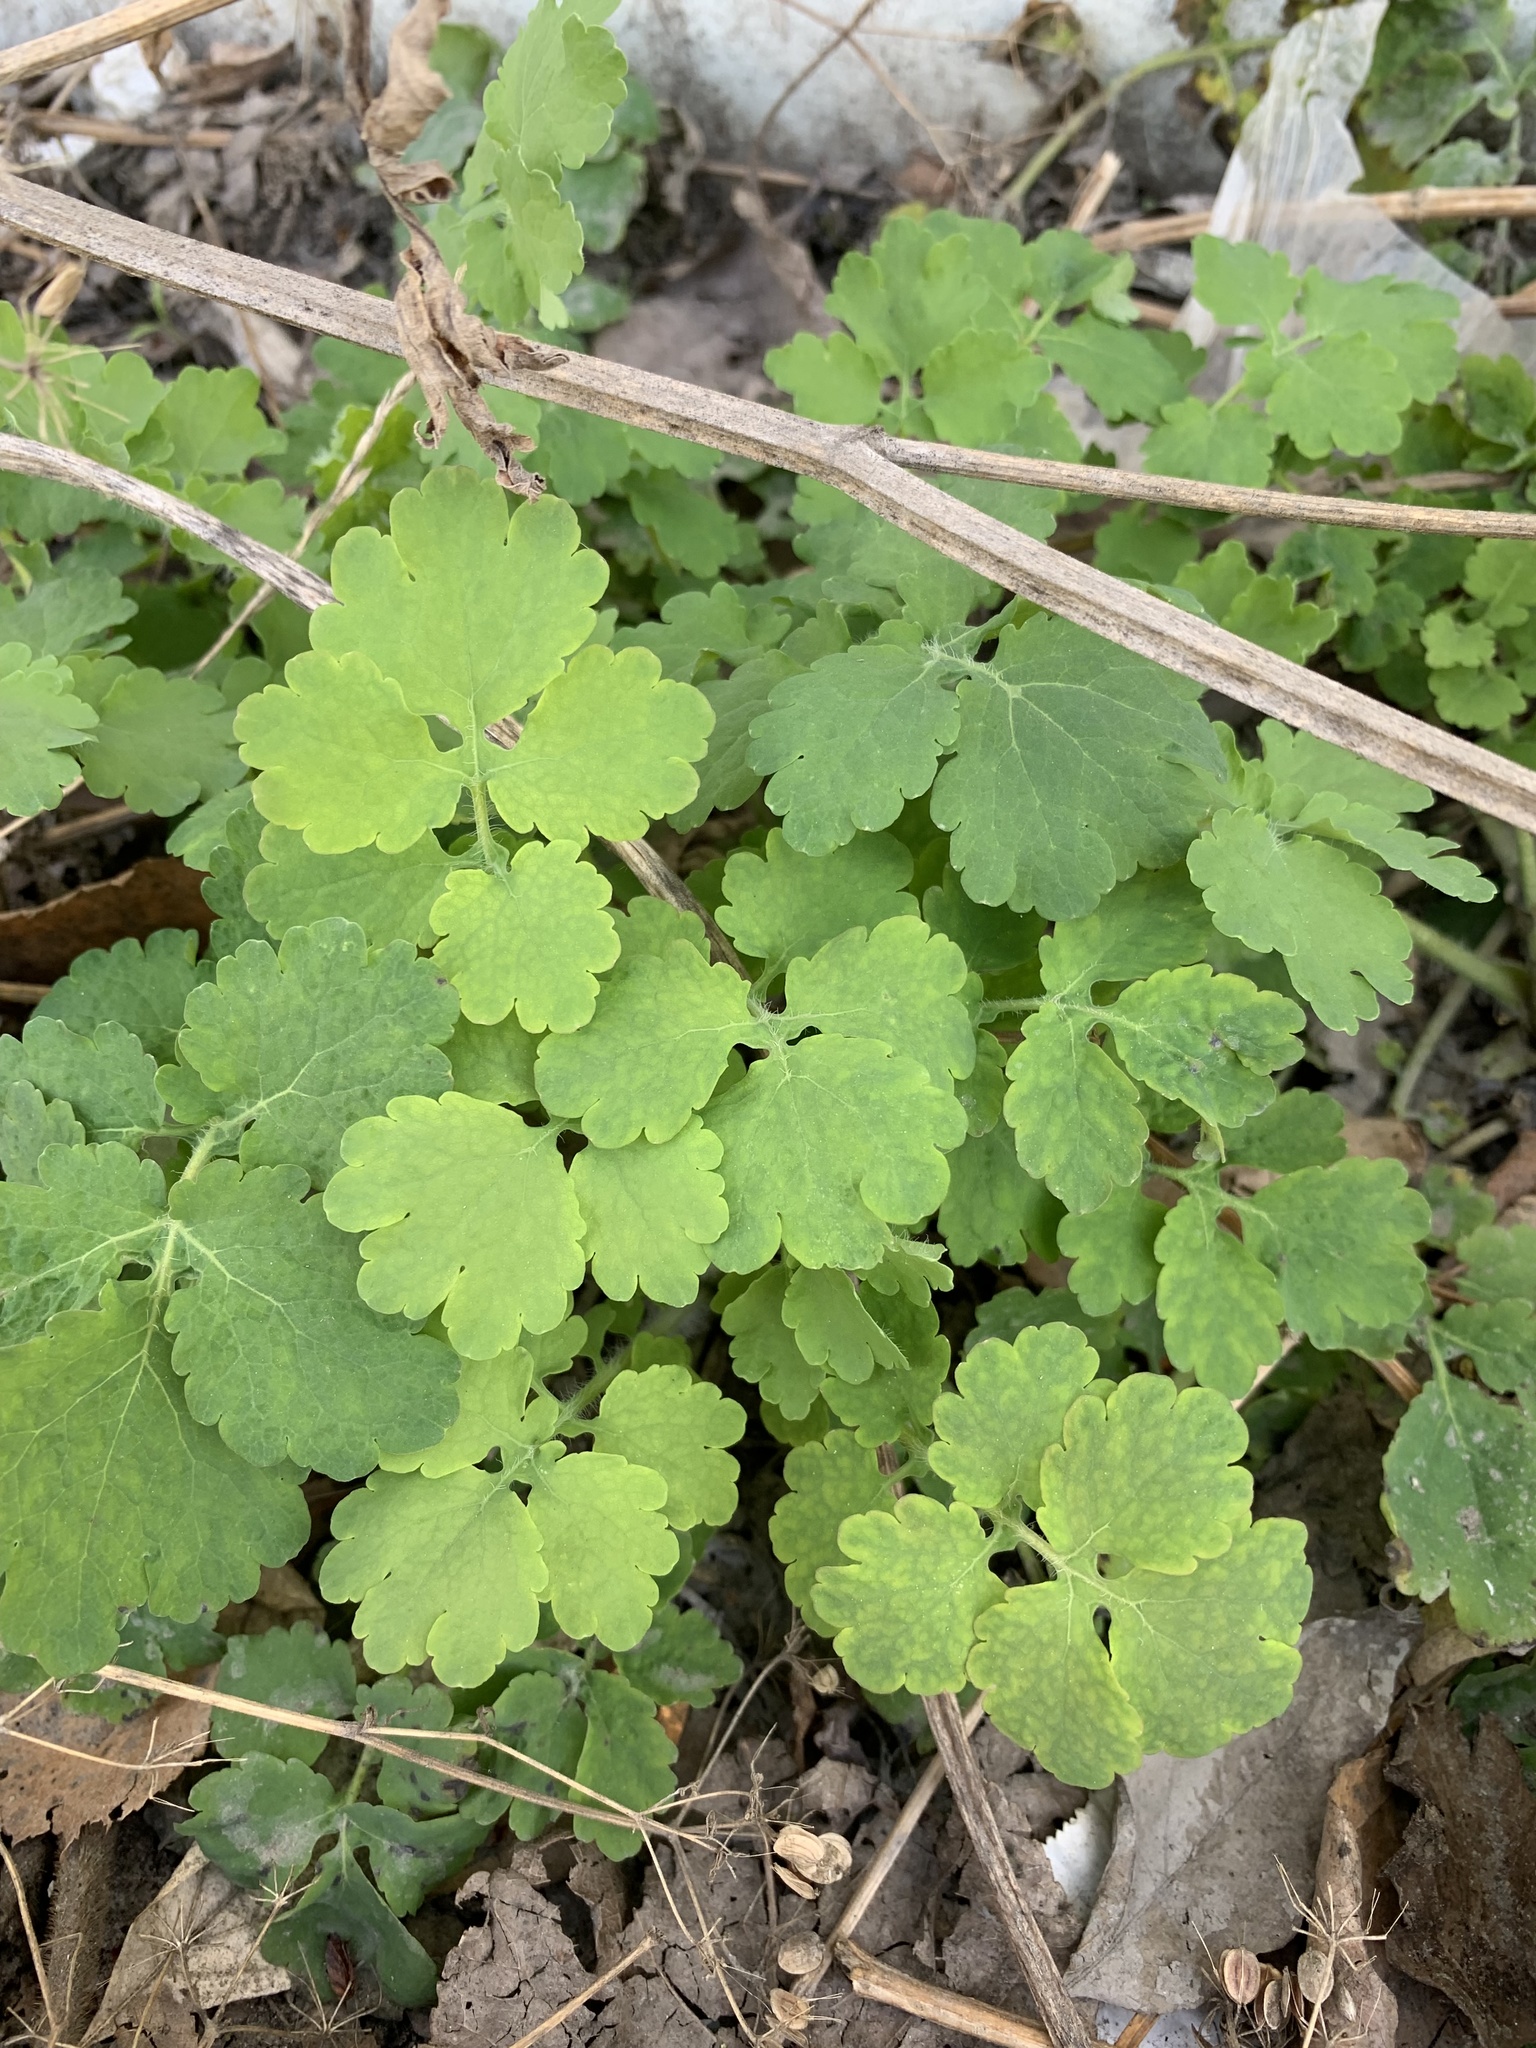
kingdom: Plantae
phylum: Tracheophyta
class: Magnoliopsida
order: Ranunculales
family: Papaveraceae
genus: Chelidonium
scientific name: Chelidonium majus
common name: Greater celandine
